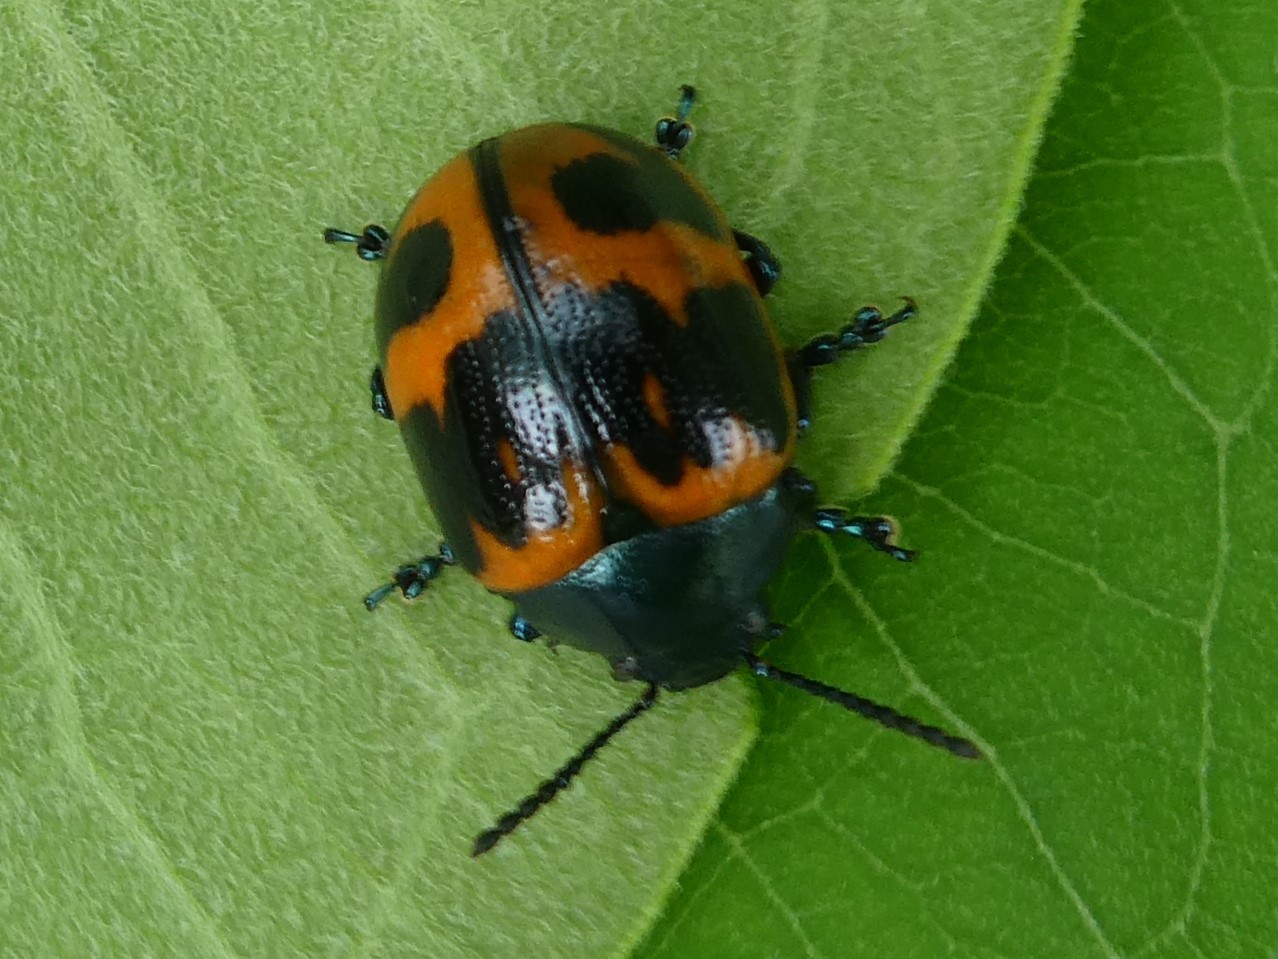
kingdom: Animalia
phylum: Arthropoda
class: Insecta
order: Coleoptera
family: Chrysomelidae
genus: Labidomera
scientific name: Labidomera clivicollis
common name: Swamp milkweed leaf beetle
